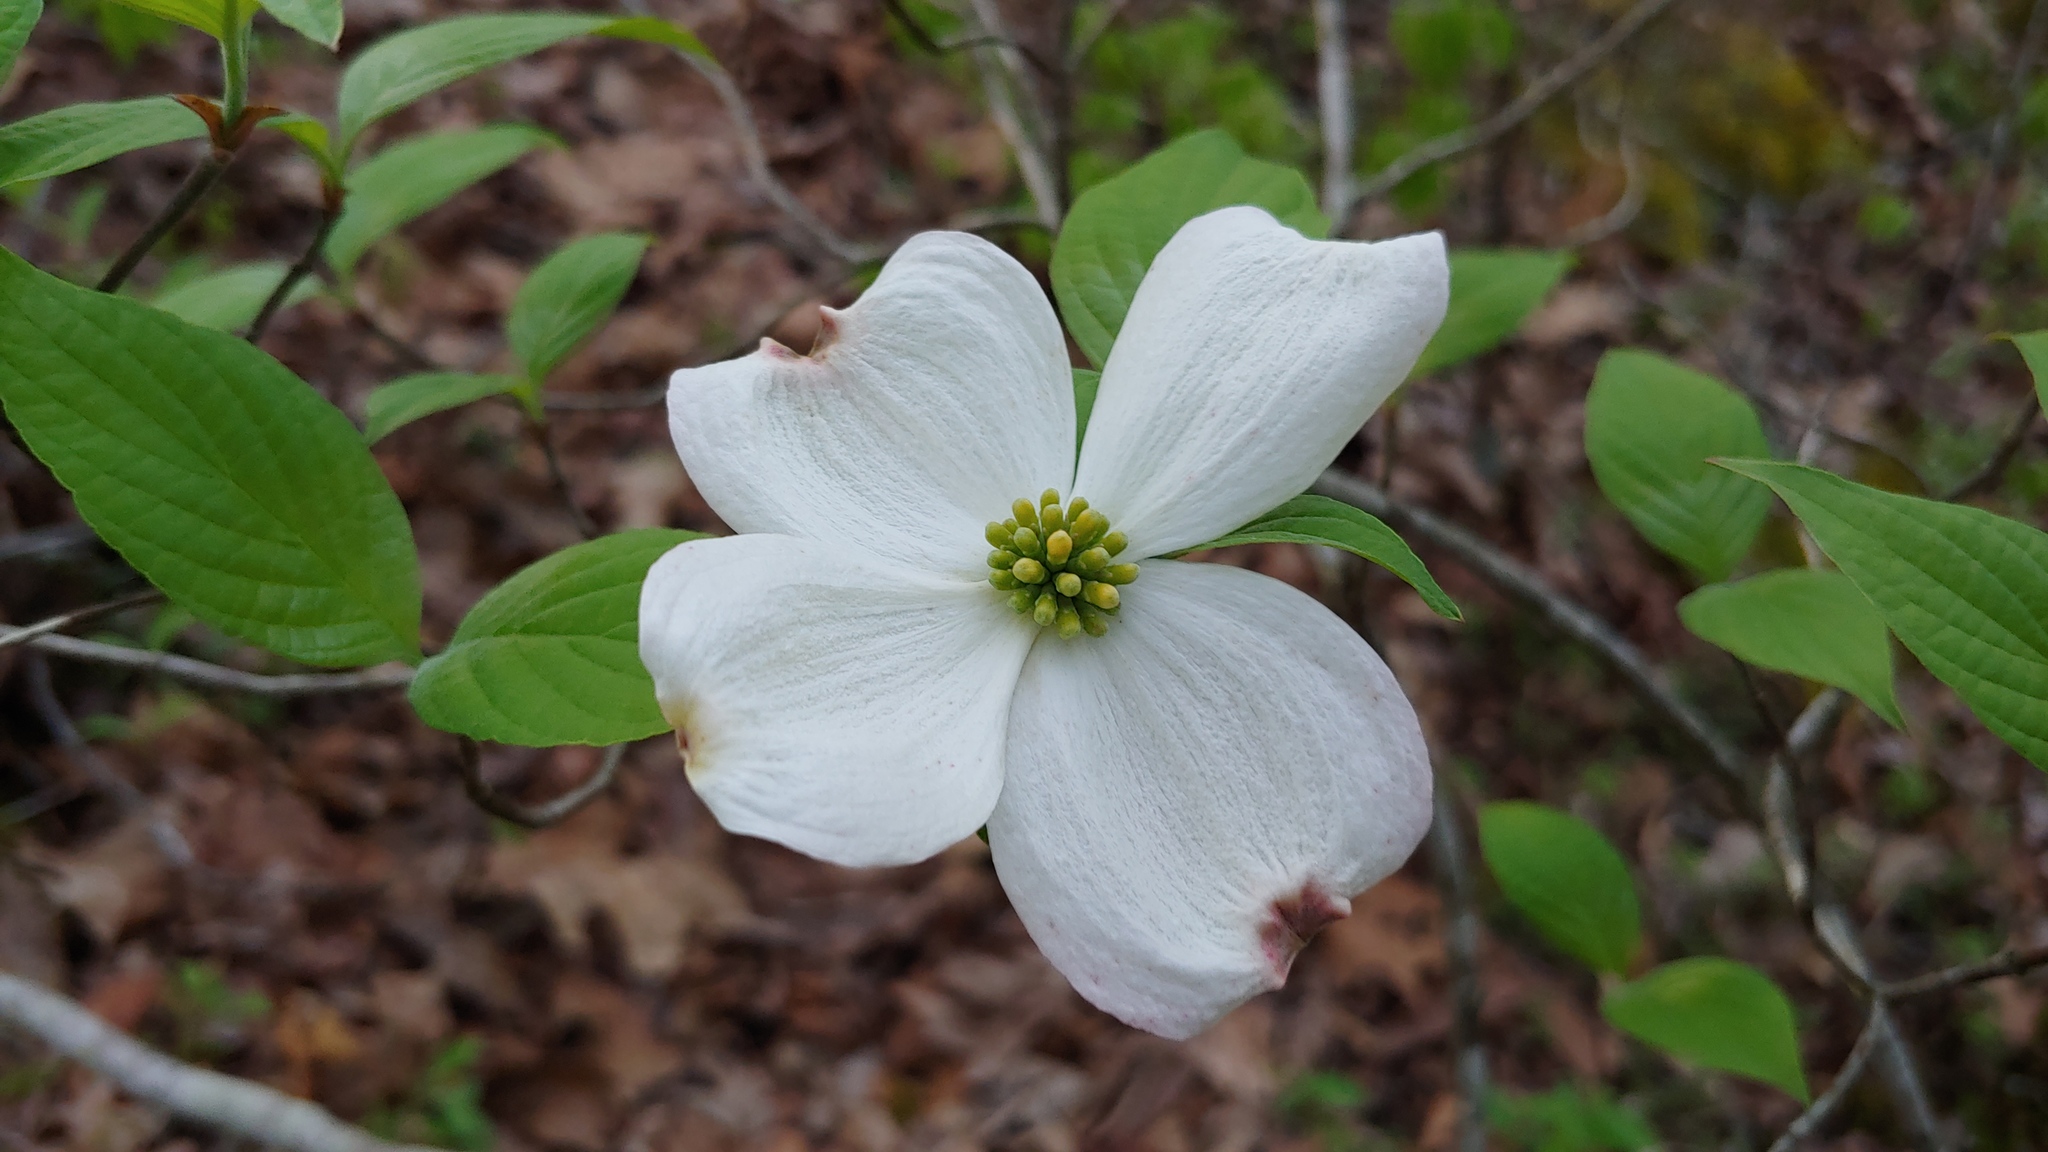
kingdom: Plantae
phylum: Tracheophyta
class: Magnoliopsida
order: Cornales
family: Cornaceae
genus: Cornus
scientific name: Cornus florida
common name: Flowering dogwood
